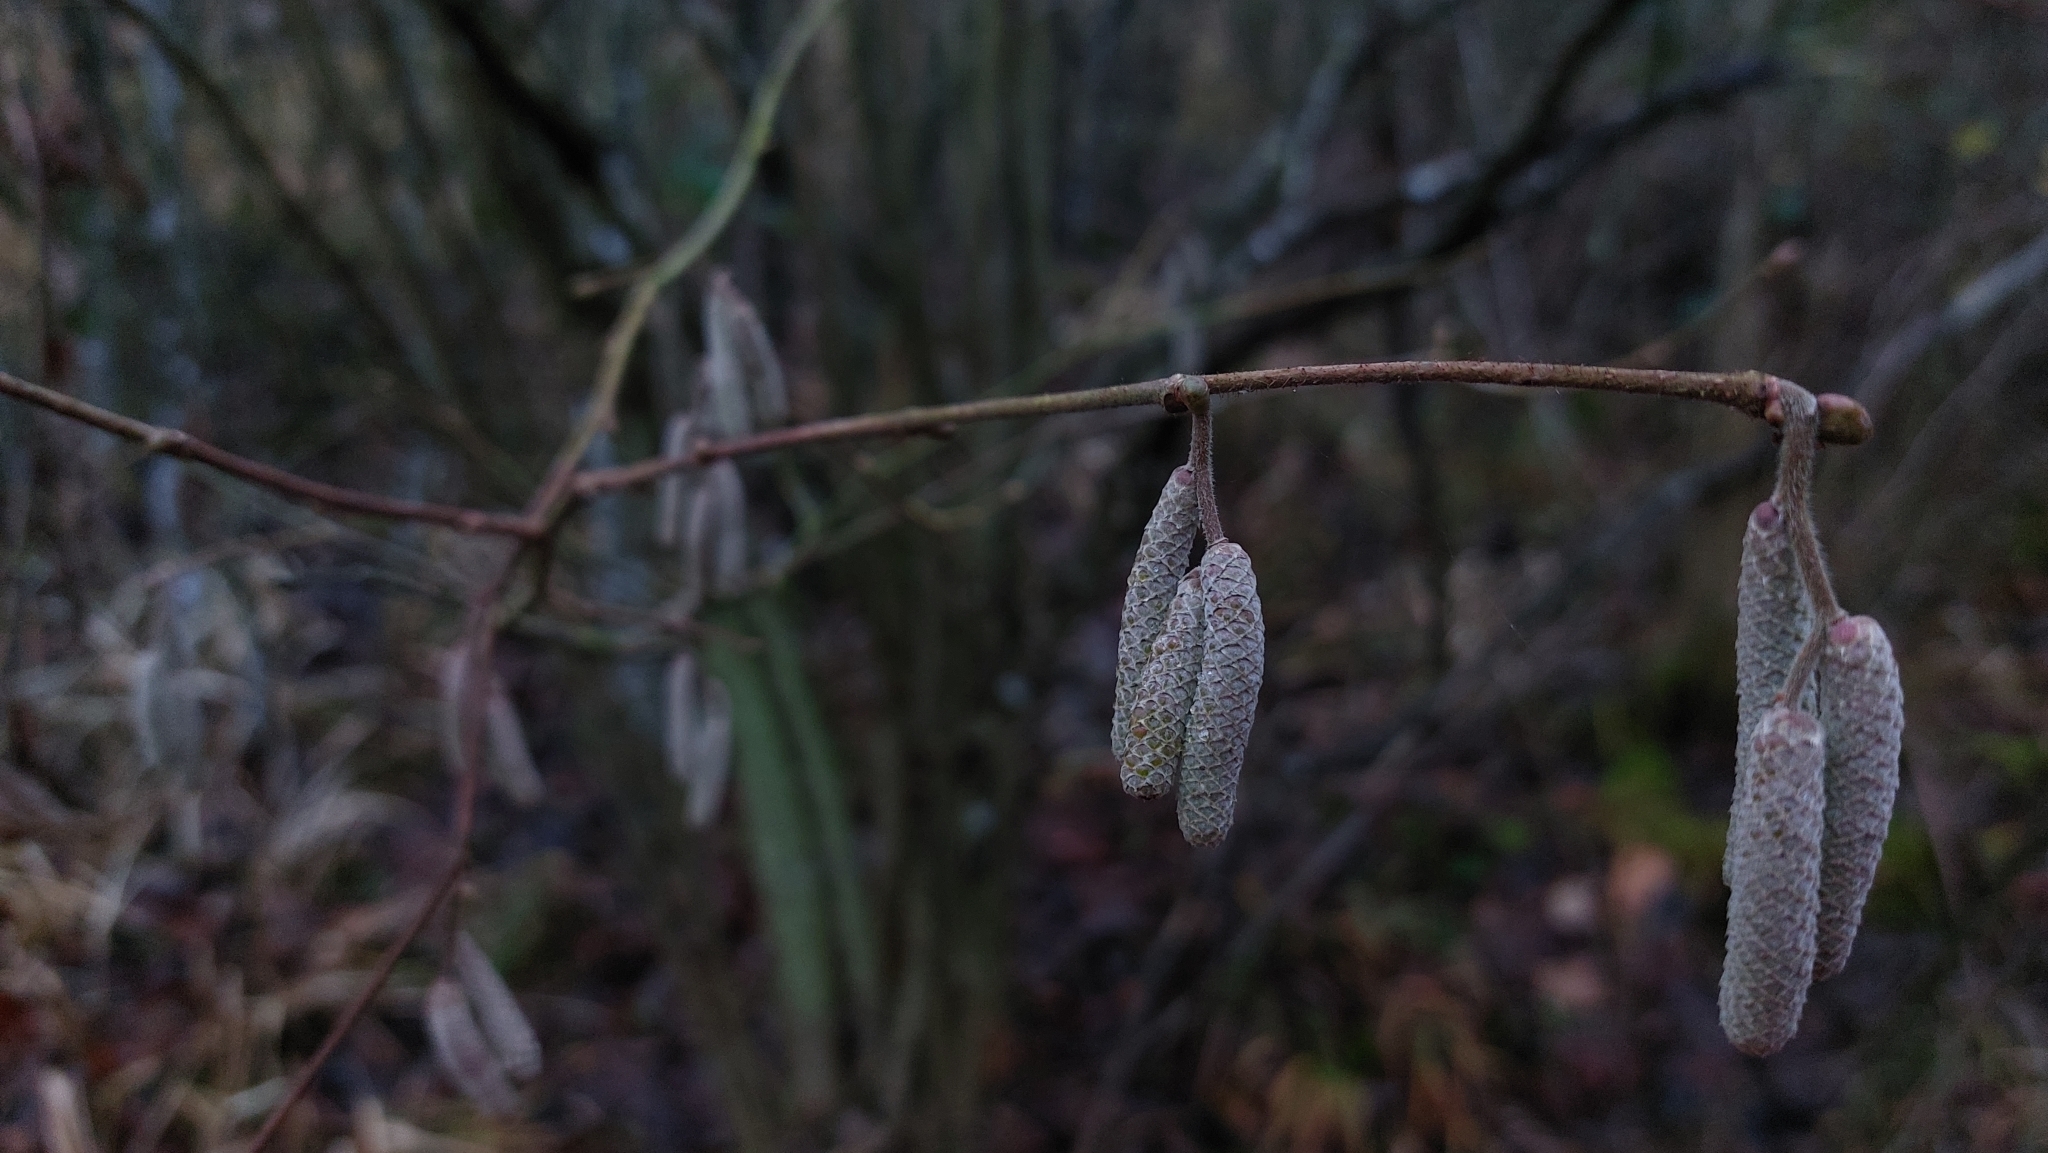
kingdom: Plantae
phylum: Tracheophyta
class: Magnoliopsida
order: Fagales
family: Betulaceae
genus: Corylus
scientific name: Corylus avellana
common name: European hazel
